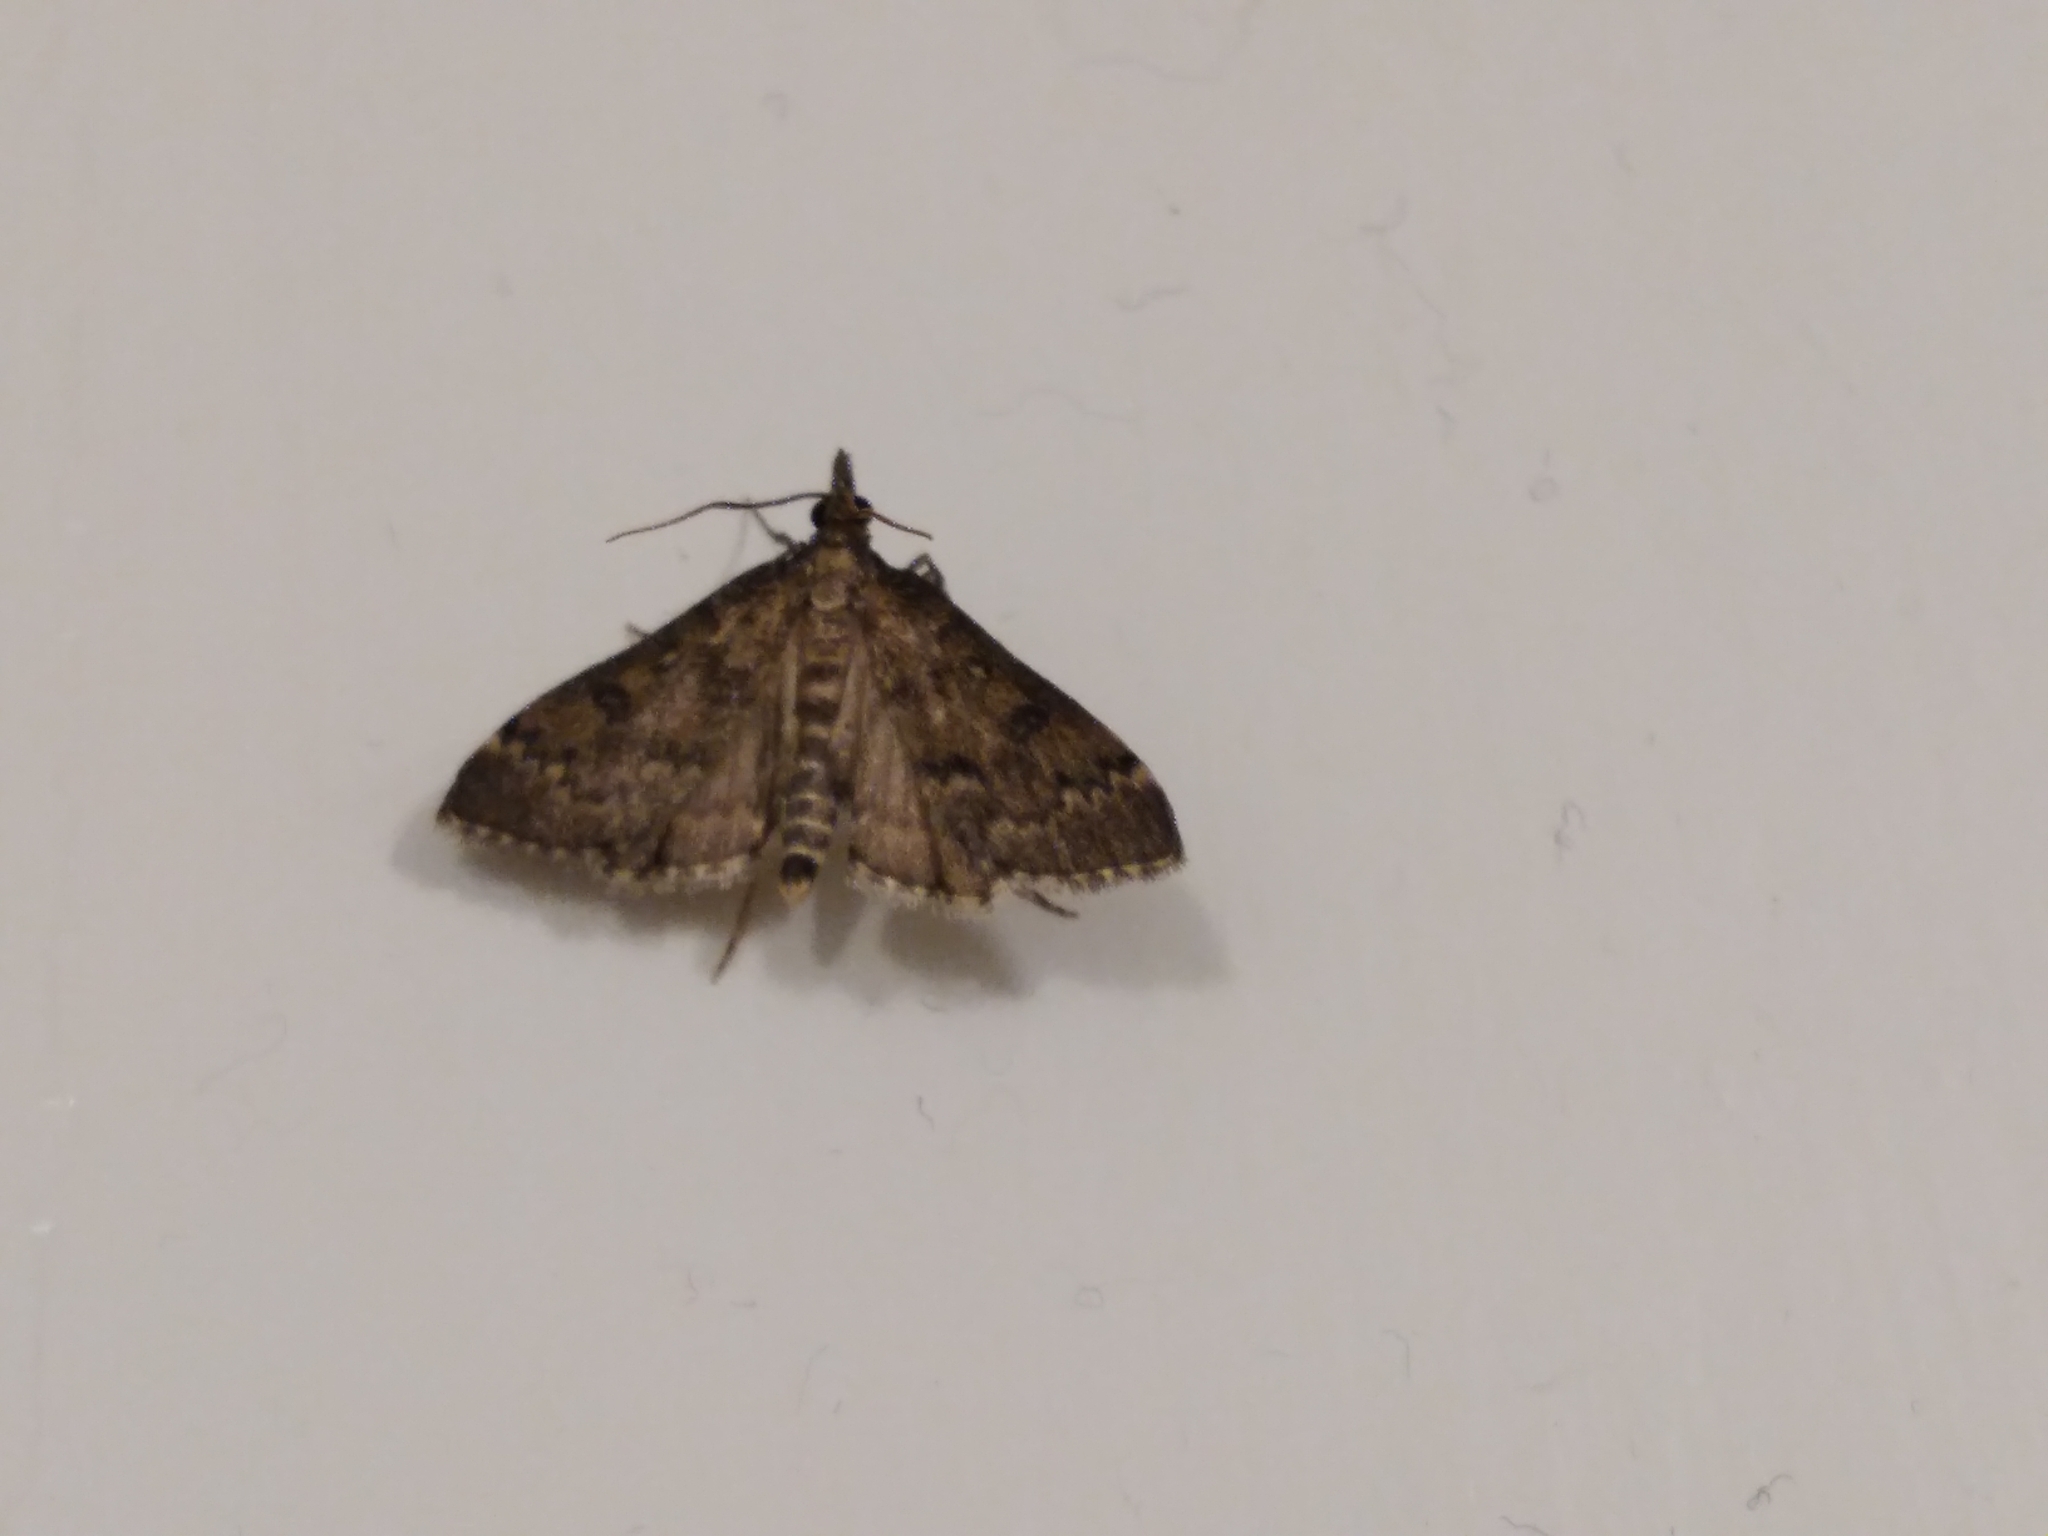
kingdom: Animalia
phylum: Arthropoda
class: Insecta
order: Lepidoptera
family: Crambidae
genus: Loxostege
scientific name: Loxostege Proternia philocapna
